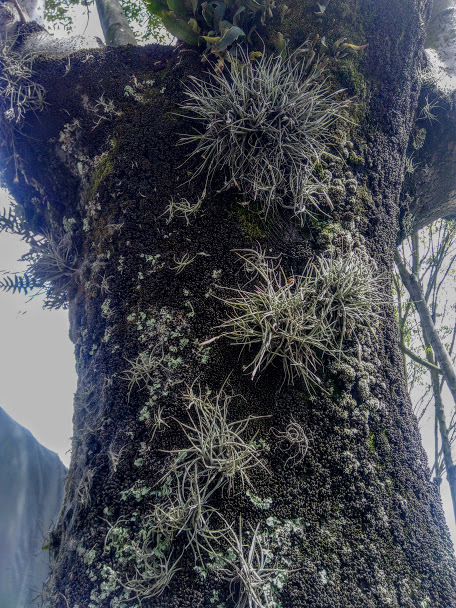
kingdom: Plantae
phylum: Tracheophyta
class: Liliopsida
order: Poales
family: Bromeliaceae
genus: Tillandsia
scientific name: Tillandsia recurvata
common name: Small ballmoss
